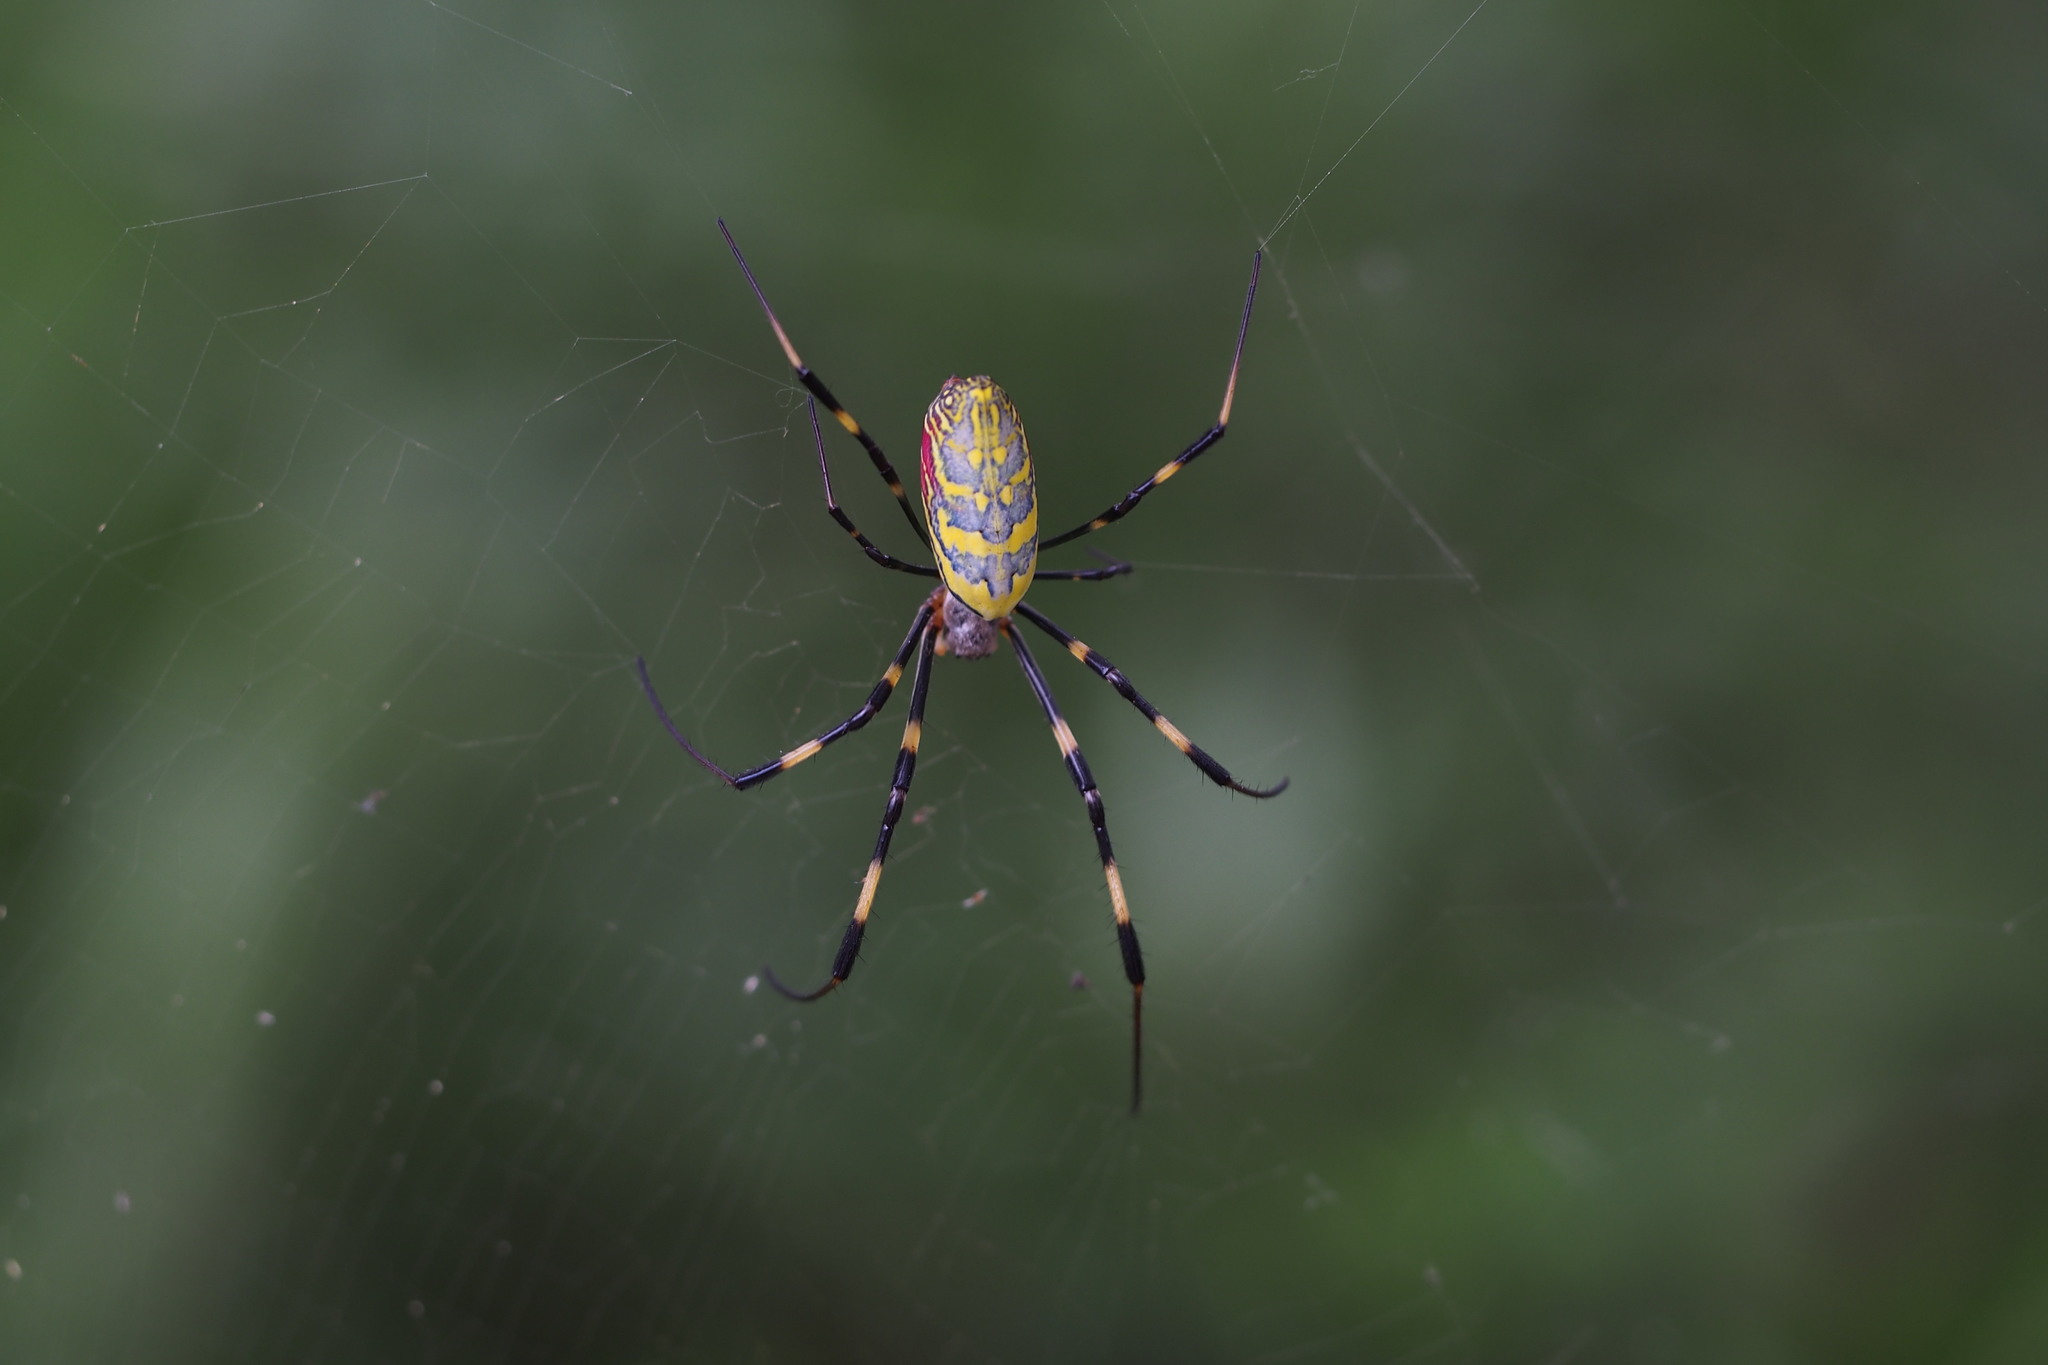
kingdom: Animalia
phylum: Arthropoda
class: Arachnida
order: Araneae
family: Araneidae
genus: Trichonephila
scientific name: Trichonephila clavata
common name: Jorō spider
